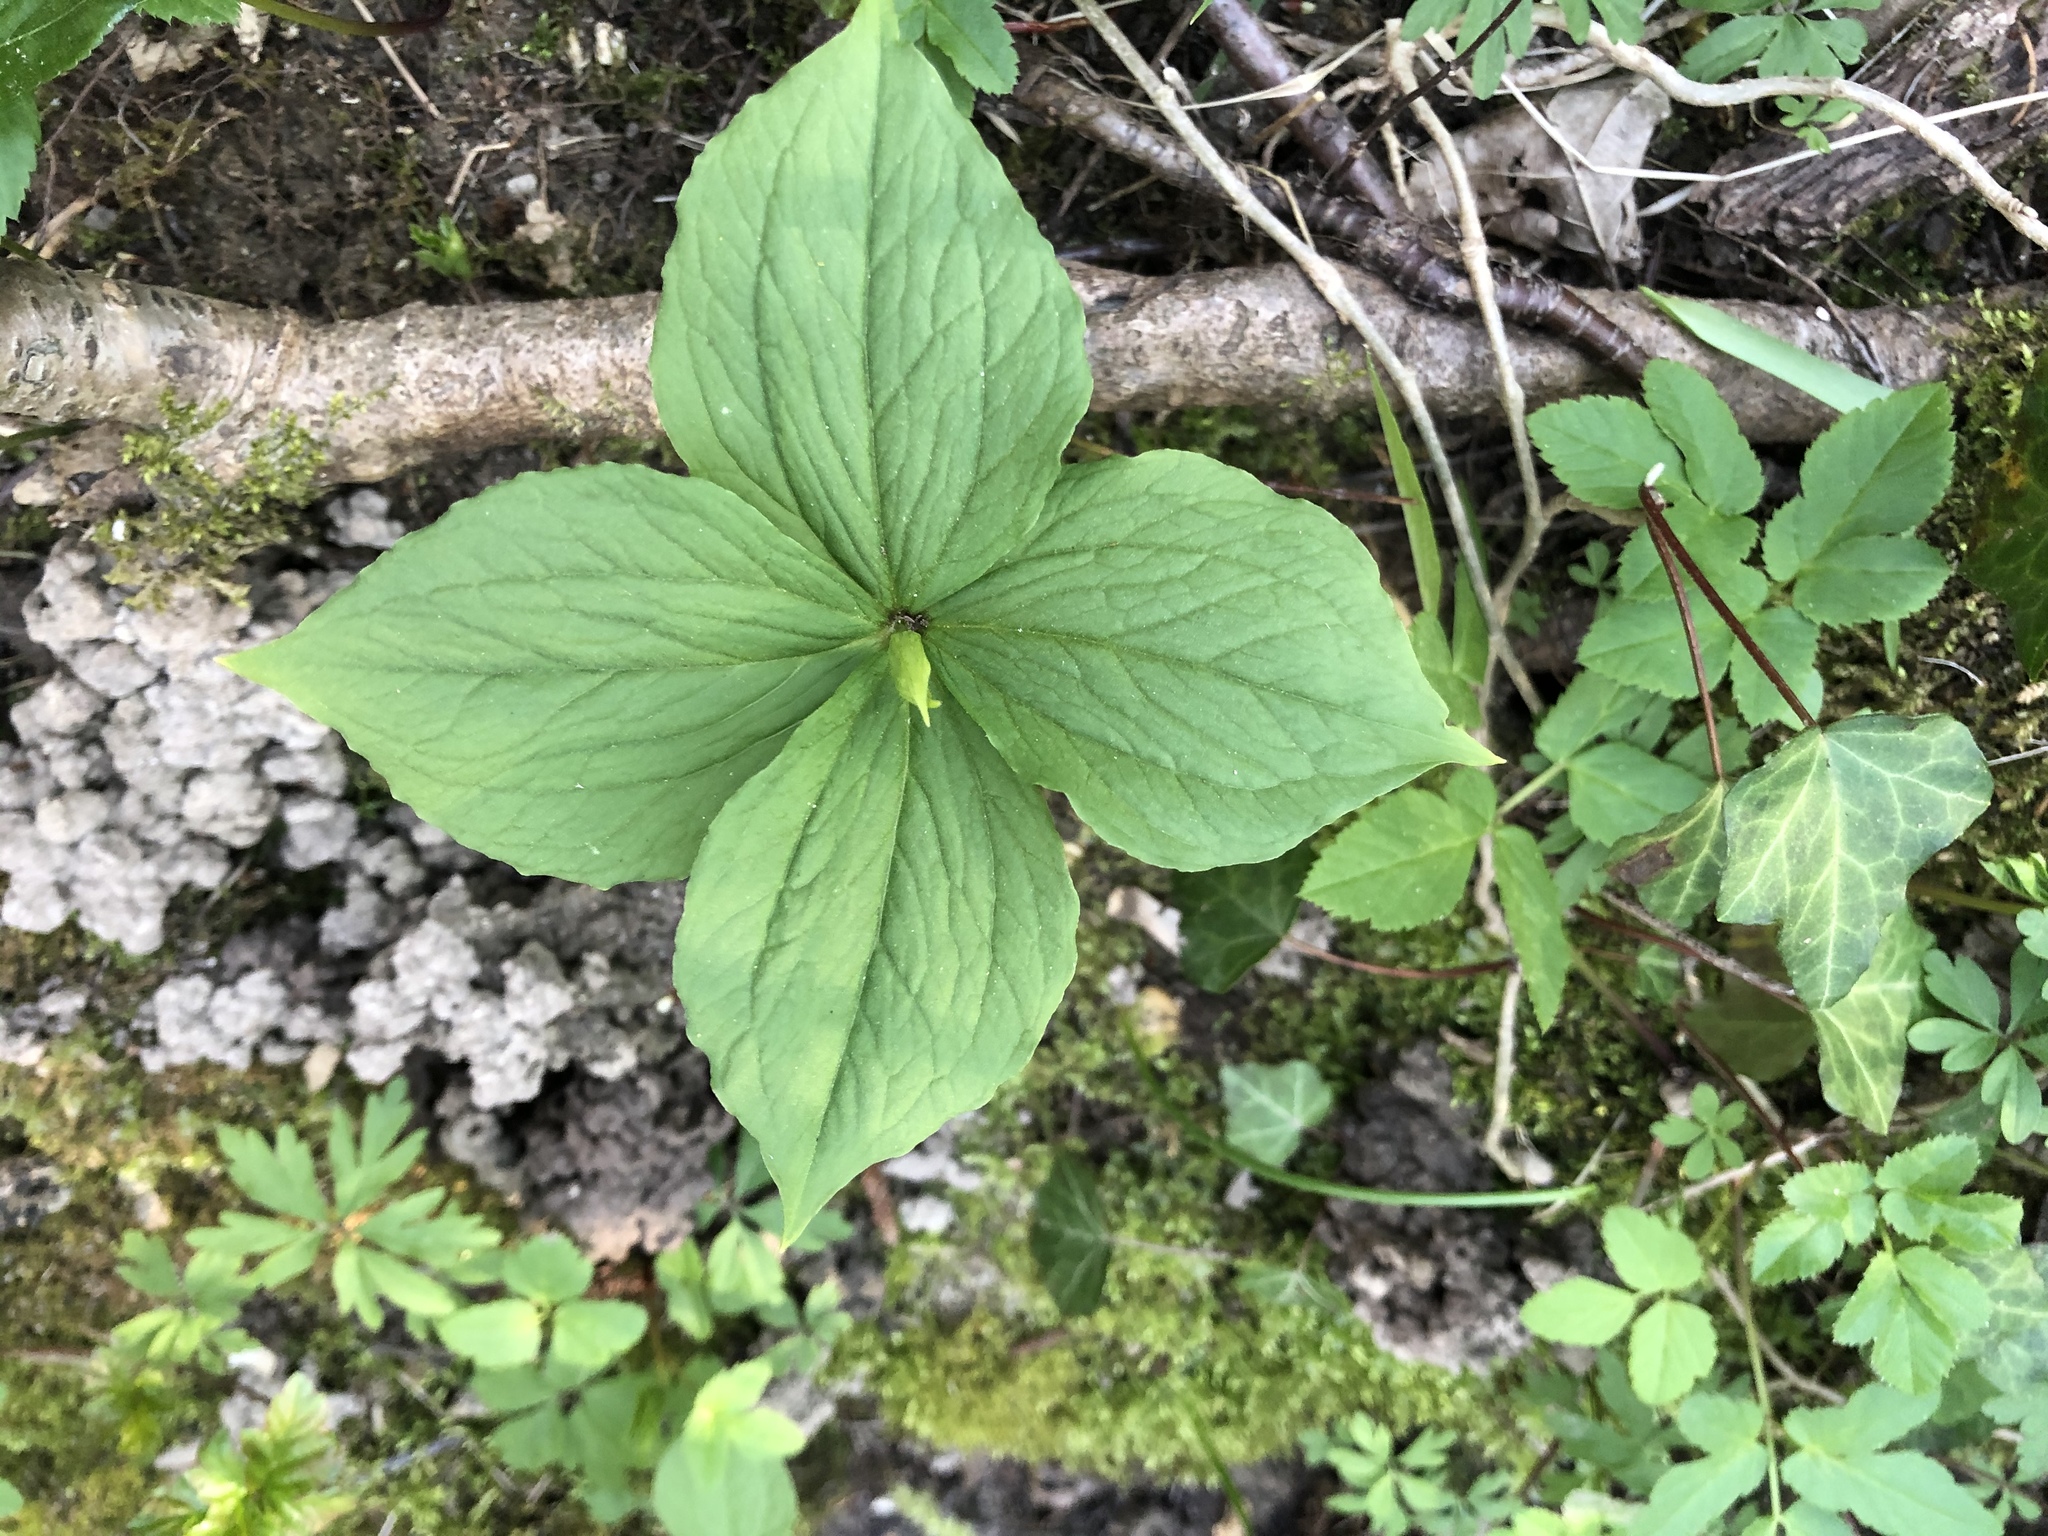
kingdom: Plantae
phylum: Tracheophyta
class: Liliopsida
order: Liliales
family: Melanthiaceae
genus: Paris
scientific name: Paris quadrifolia
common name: Herb-paris
